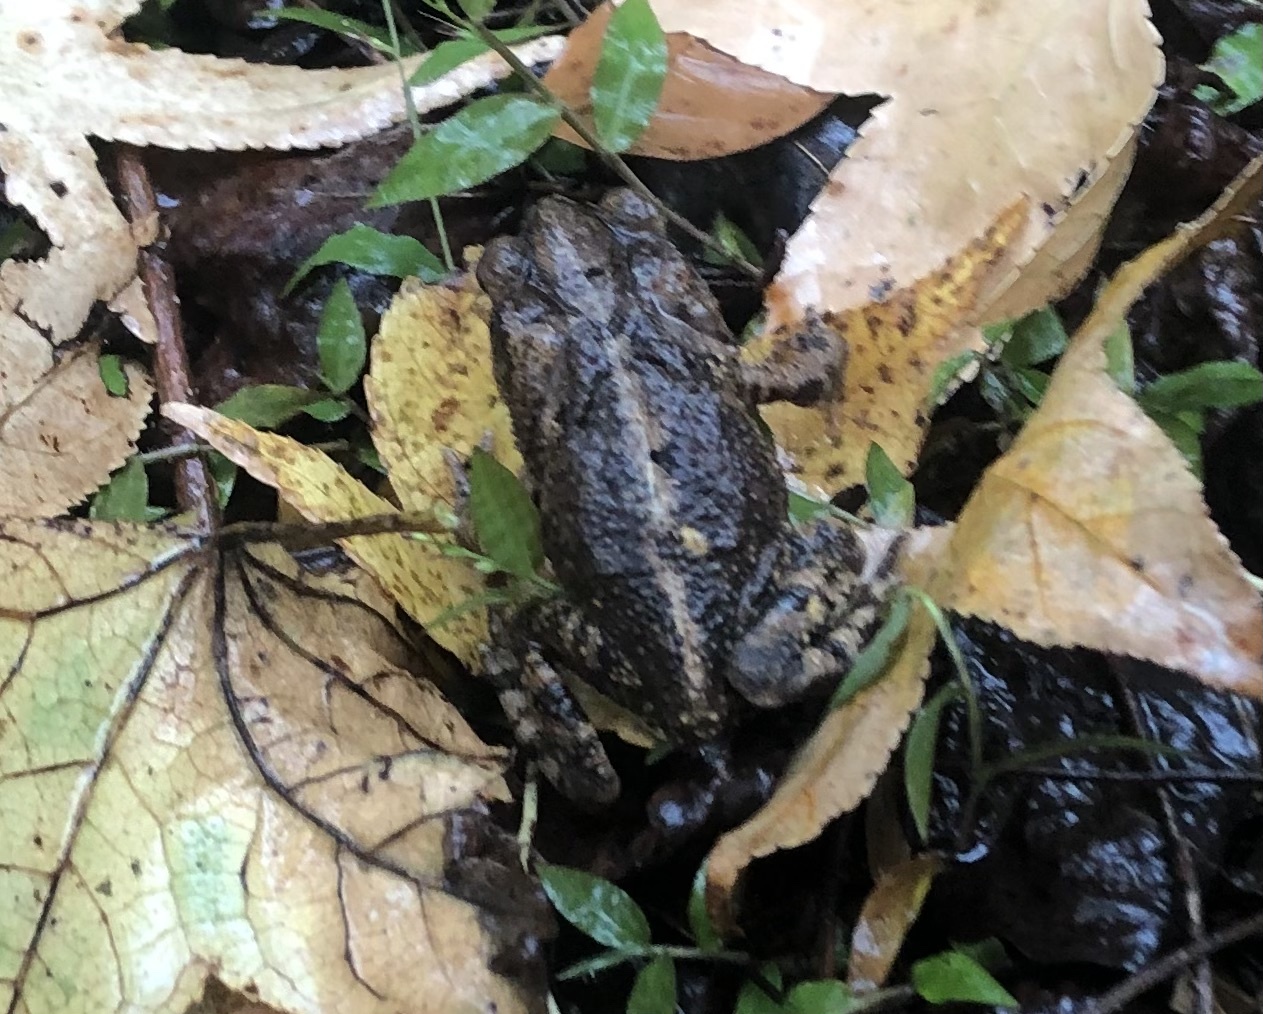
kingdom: Animalia
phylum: Chordata
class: Amphibia
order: Anura
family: Bufonidae
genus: Incilius
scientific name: Incilius nebulifer
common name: Gulf coast toad
